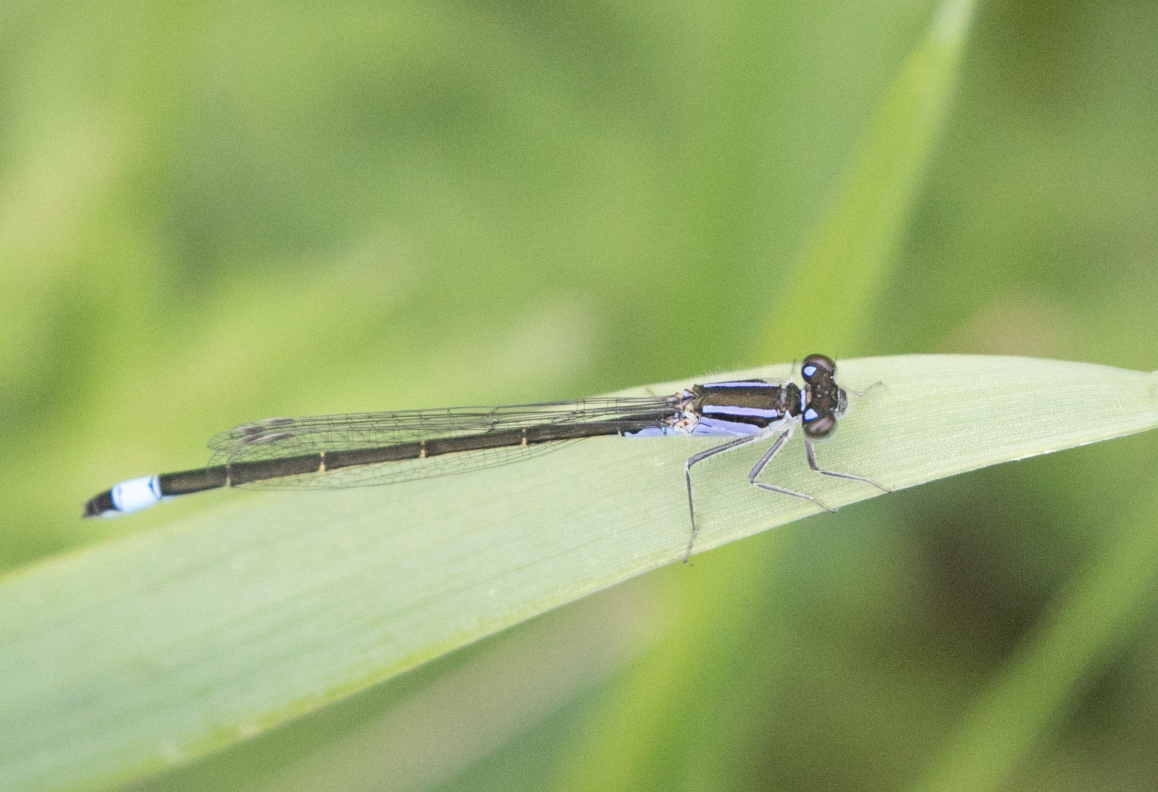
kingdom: Animalia
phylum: Arthropoda
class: Insecta
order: Odonata
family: Coenagrionidae
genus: Ischnura
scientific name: Ischnura elegans
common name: Blue-tailed damselfly
